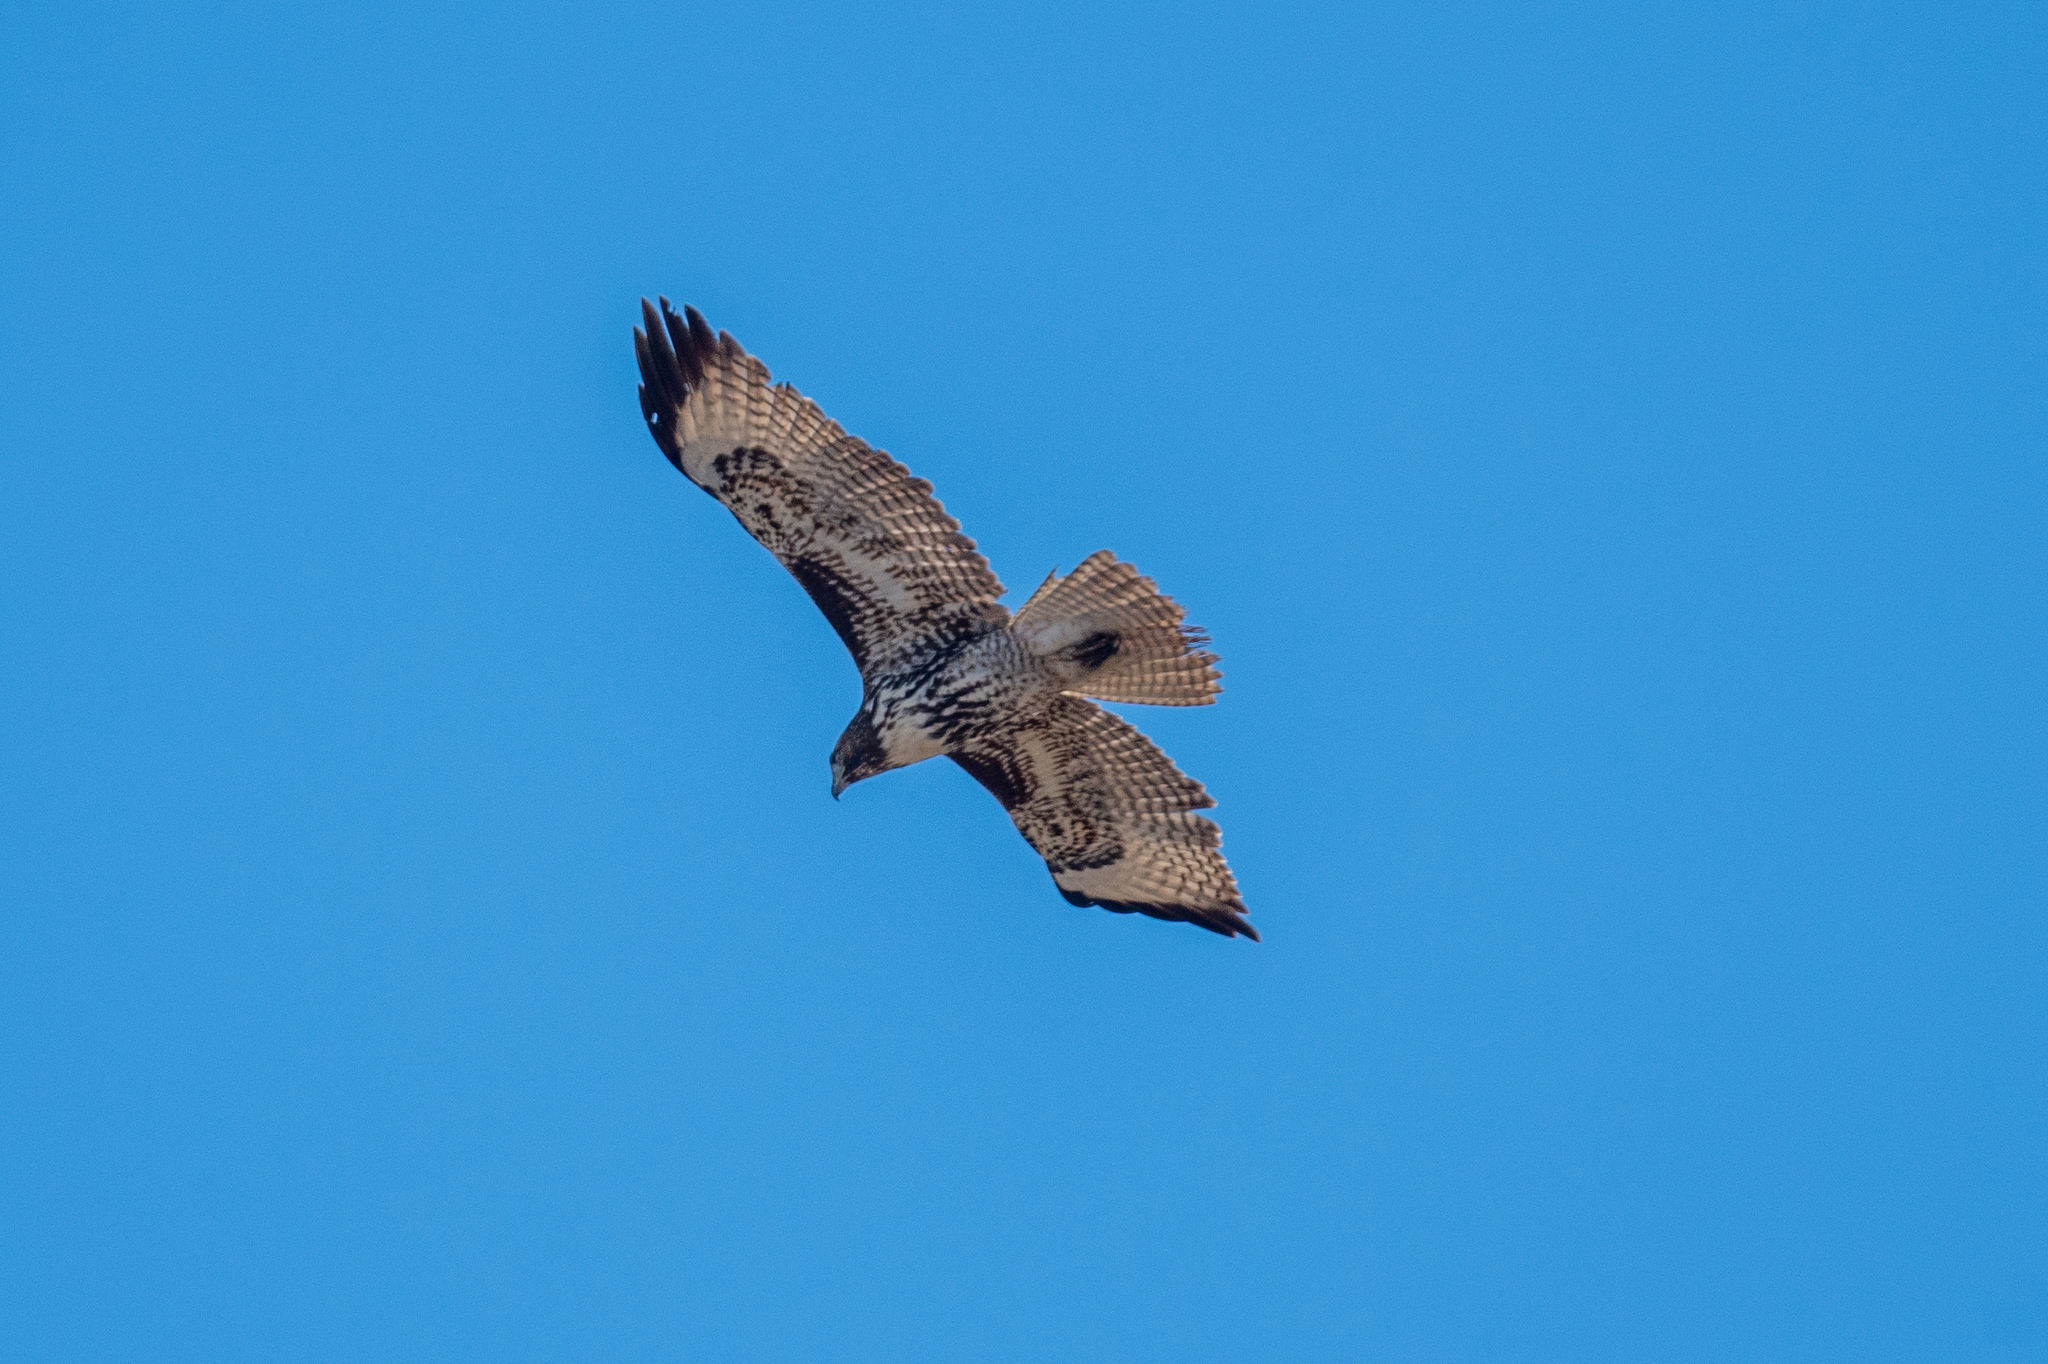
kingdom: Animalia
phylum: Chordata
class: Aves
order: Accipitriformes
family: Accipitridae
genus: Buteo
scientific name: Buteo jamaicensis
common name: Red-tailed hawk
